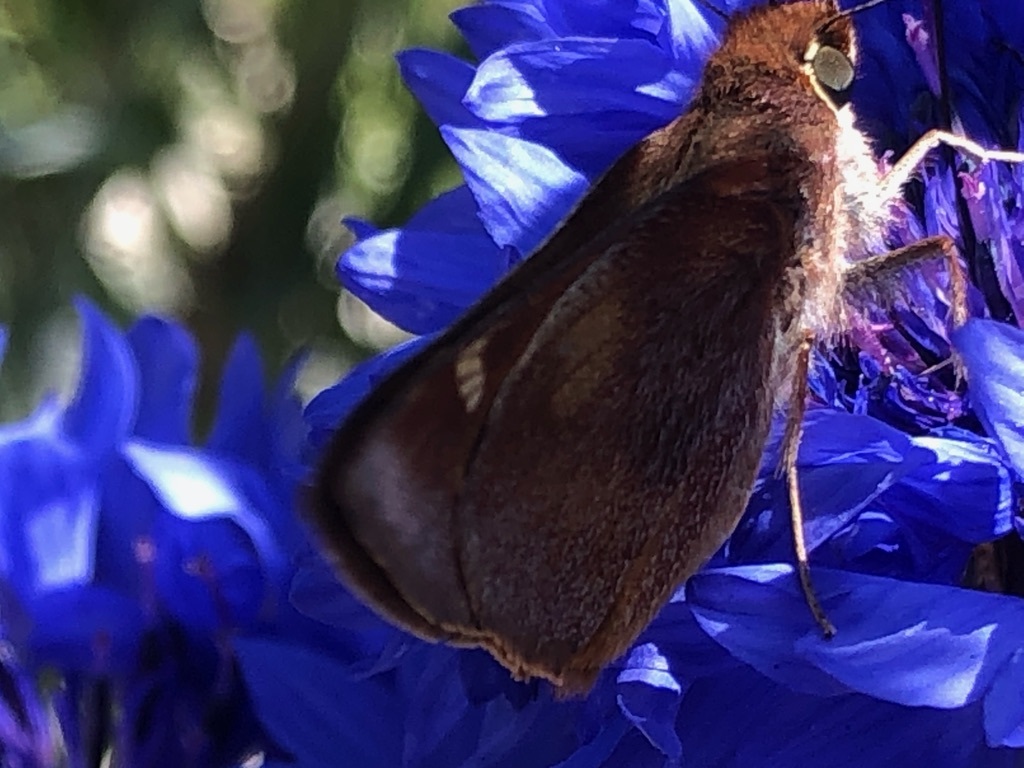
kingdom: Animalia
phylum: Arthropoda
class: Insecta
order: Lepidoptera
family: Hesperiidae
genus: Lon
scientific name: Lon melane
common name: Umber skipper
